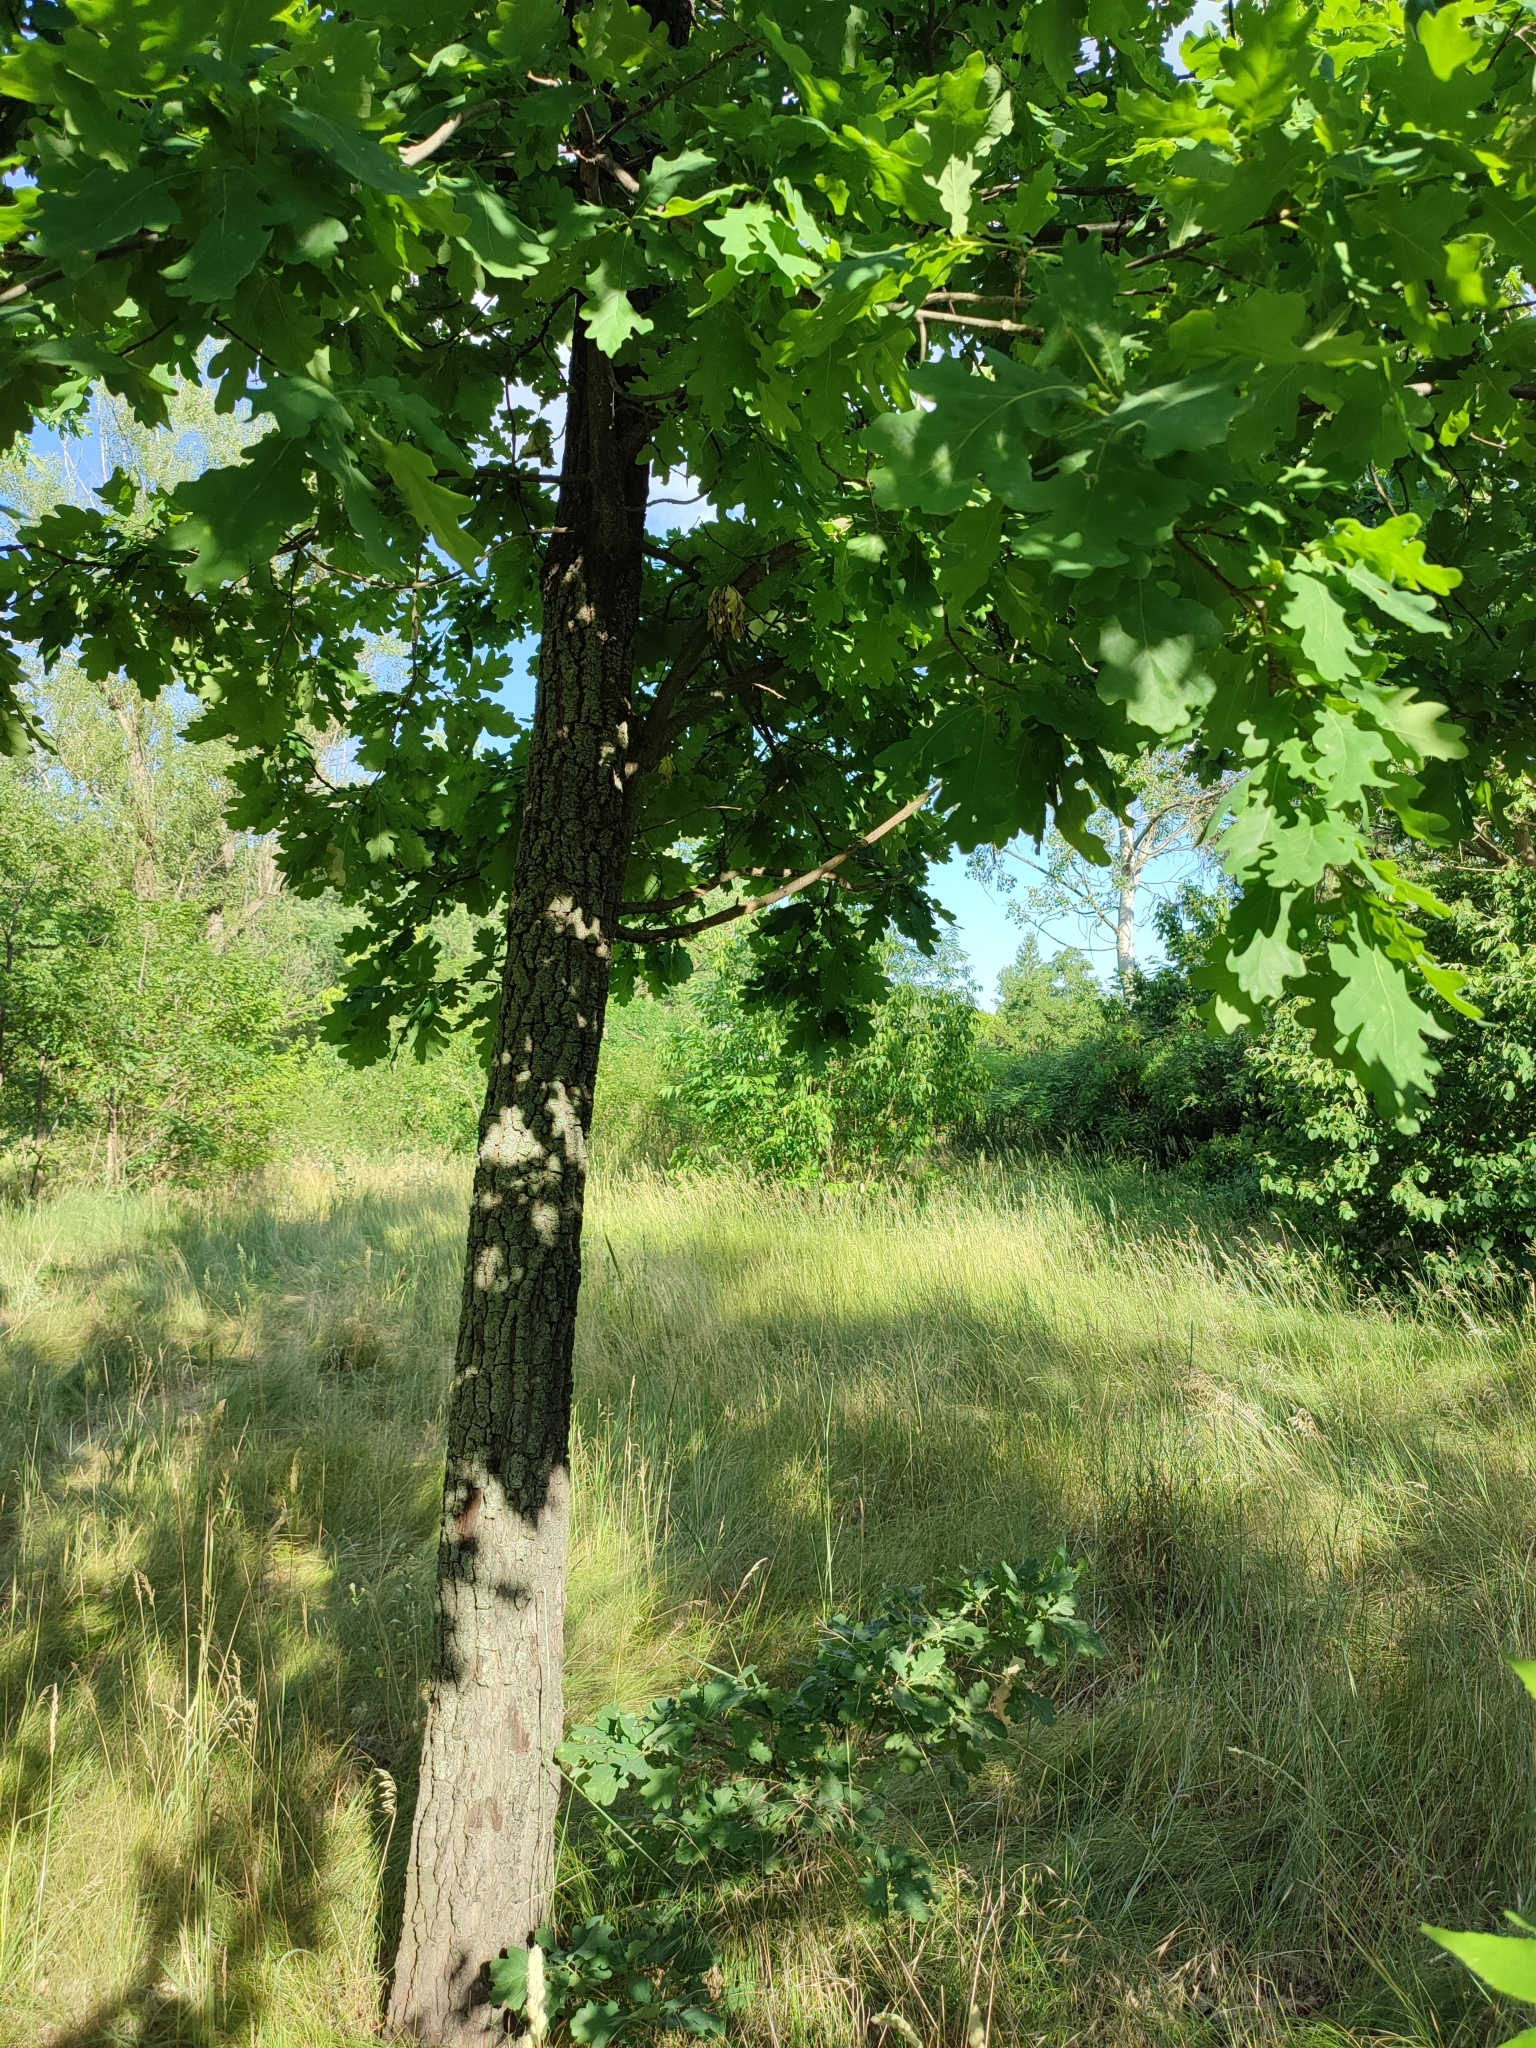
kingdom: Plantae
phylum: Tracheophyta
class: Magnoliopsida
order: Fagales
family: Fagaceae
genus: Quercus
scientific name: Quercus robur
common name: Pedunculate oak
